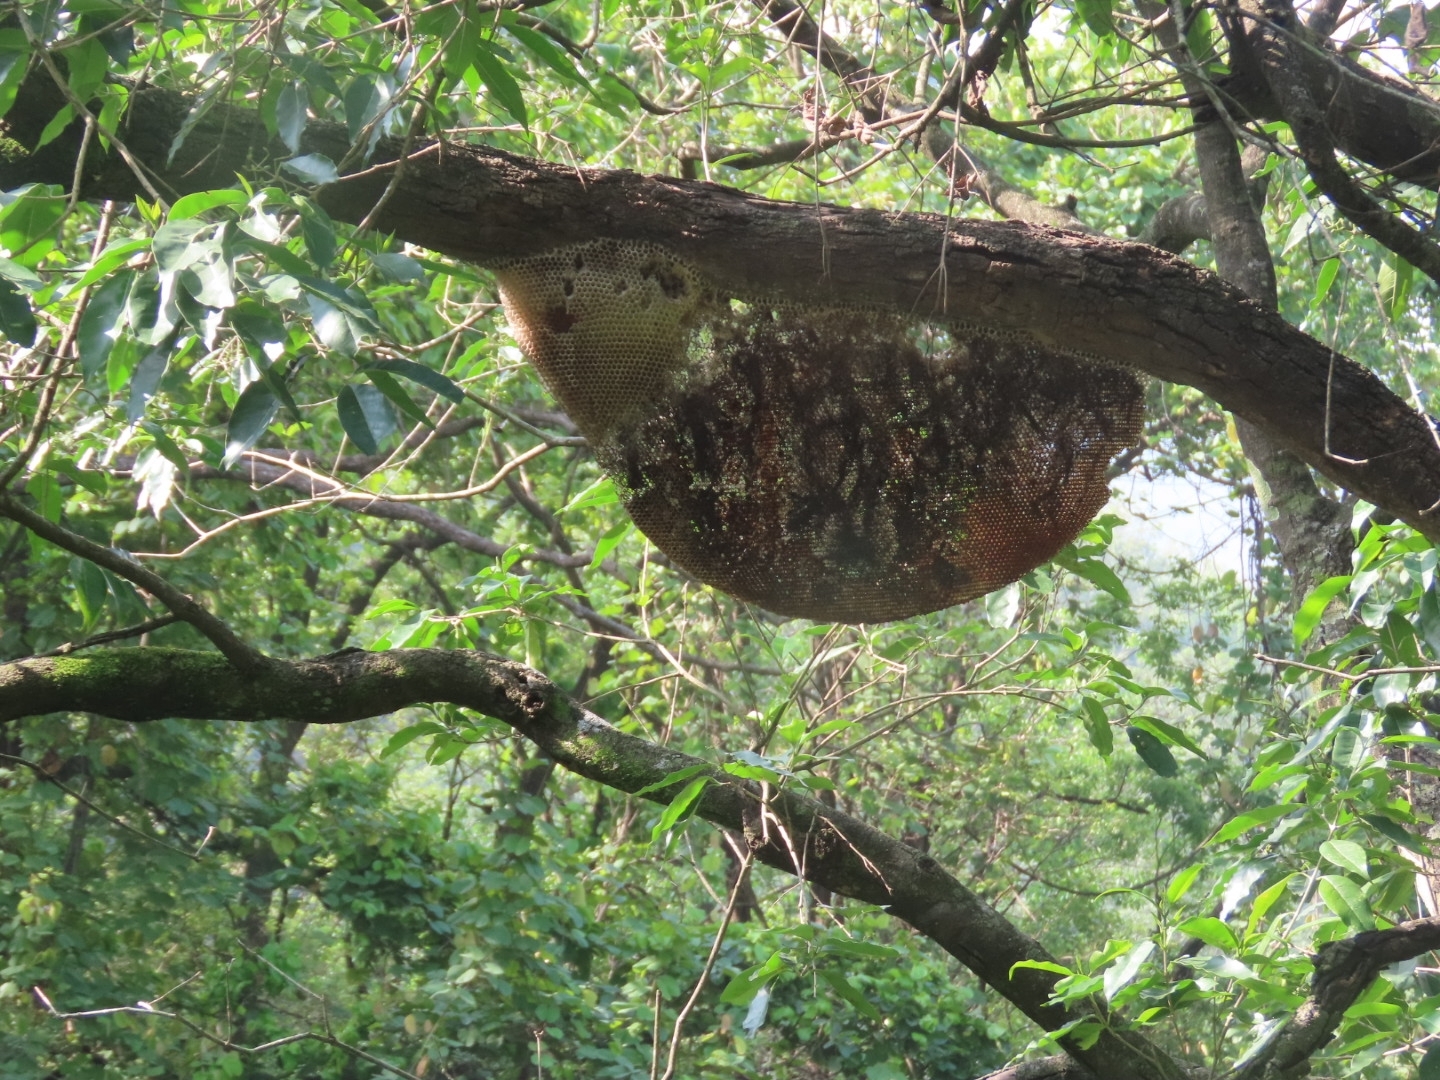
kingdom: Animalia
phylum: Arthropoda
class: Insecta
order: Hymenoptera
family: Apidae
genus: Apis
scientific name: Apis dorsata
